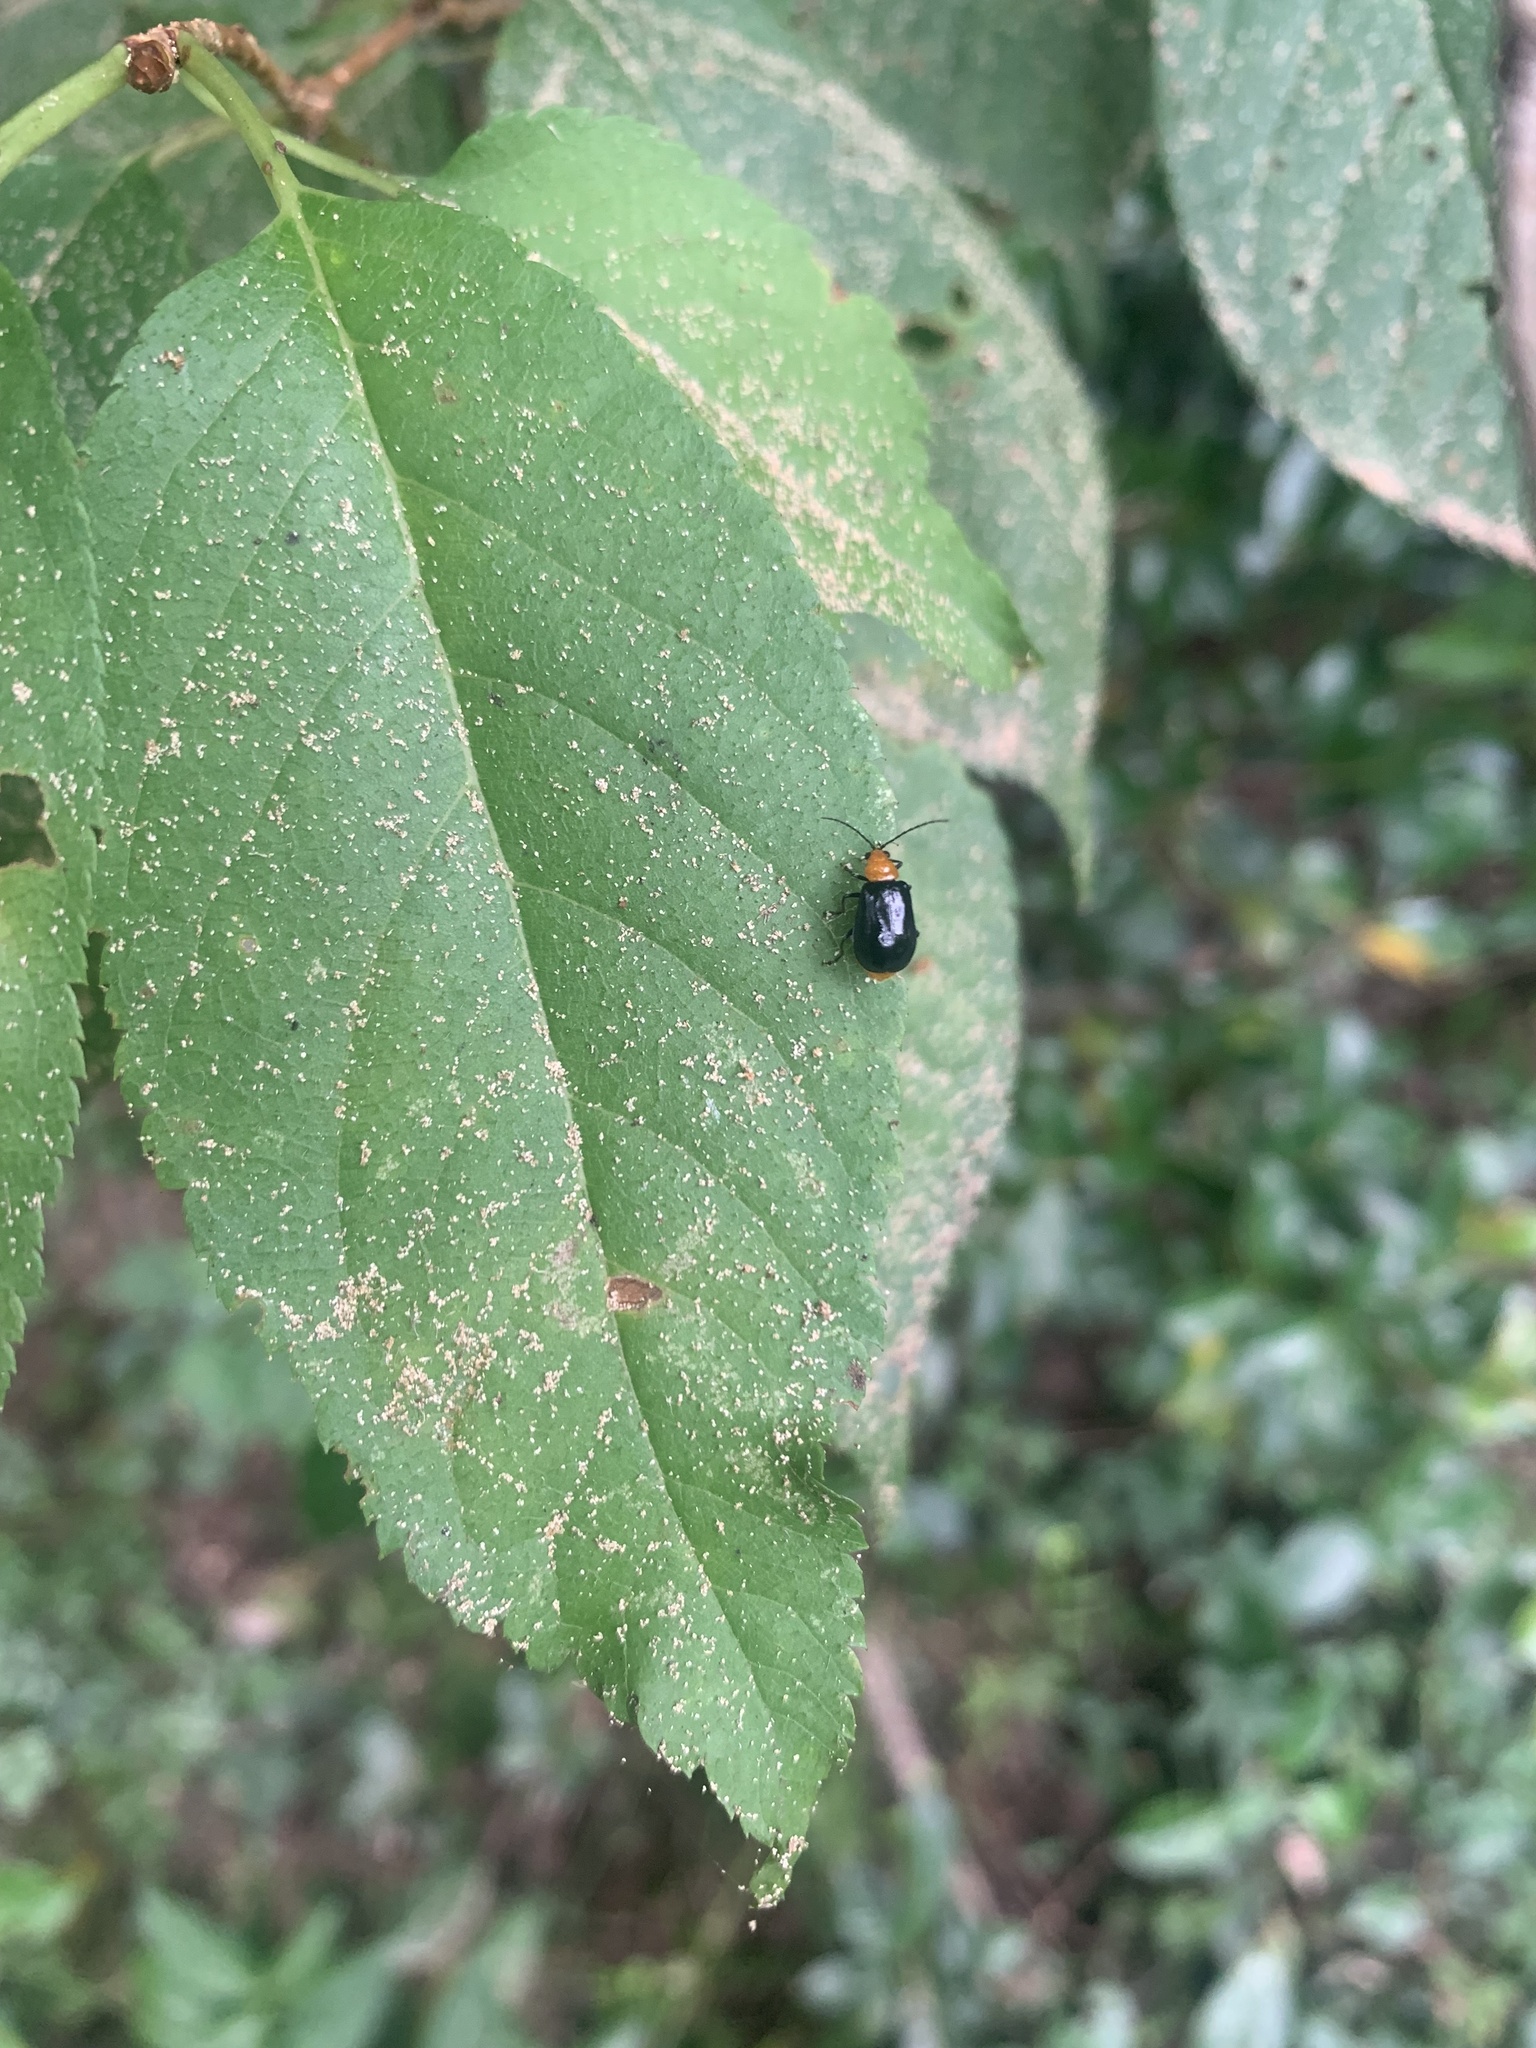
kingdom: Animalia
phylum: Arthropoda
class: Insecta
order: Coleoptera
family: Chrysomelidae
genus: Aulacophora
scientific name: Aulacophora nigripennis
